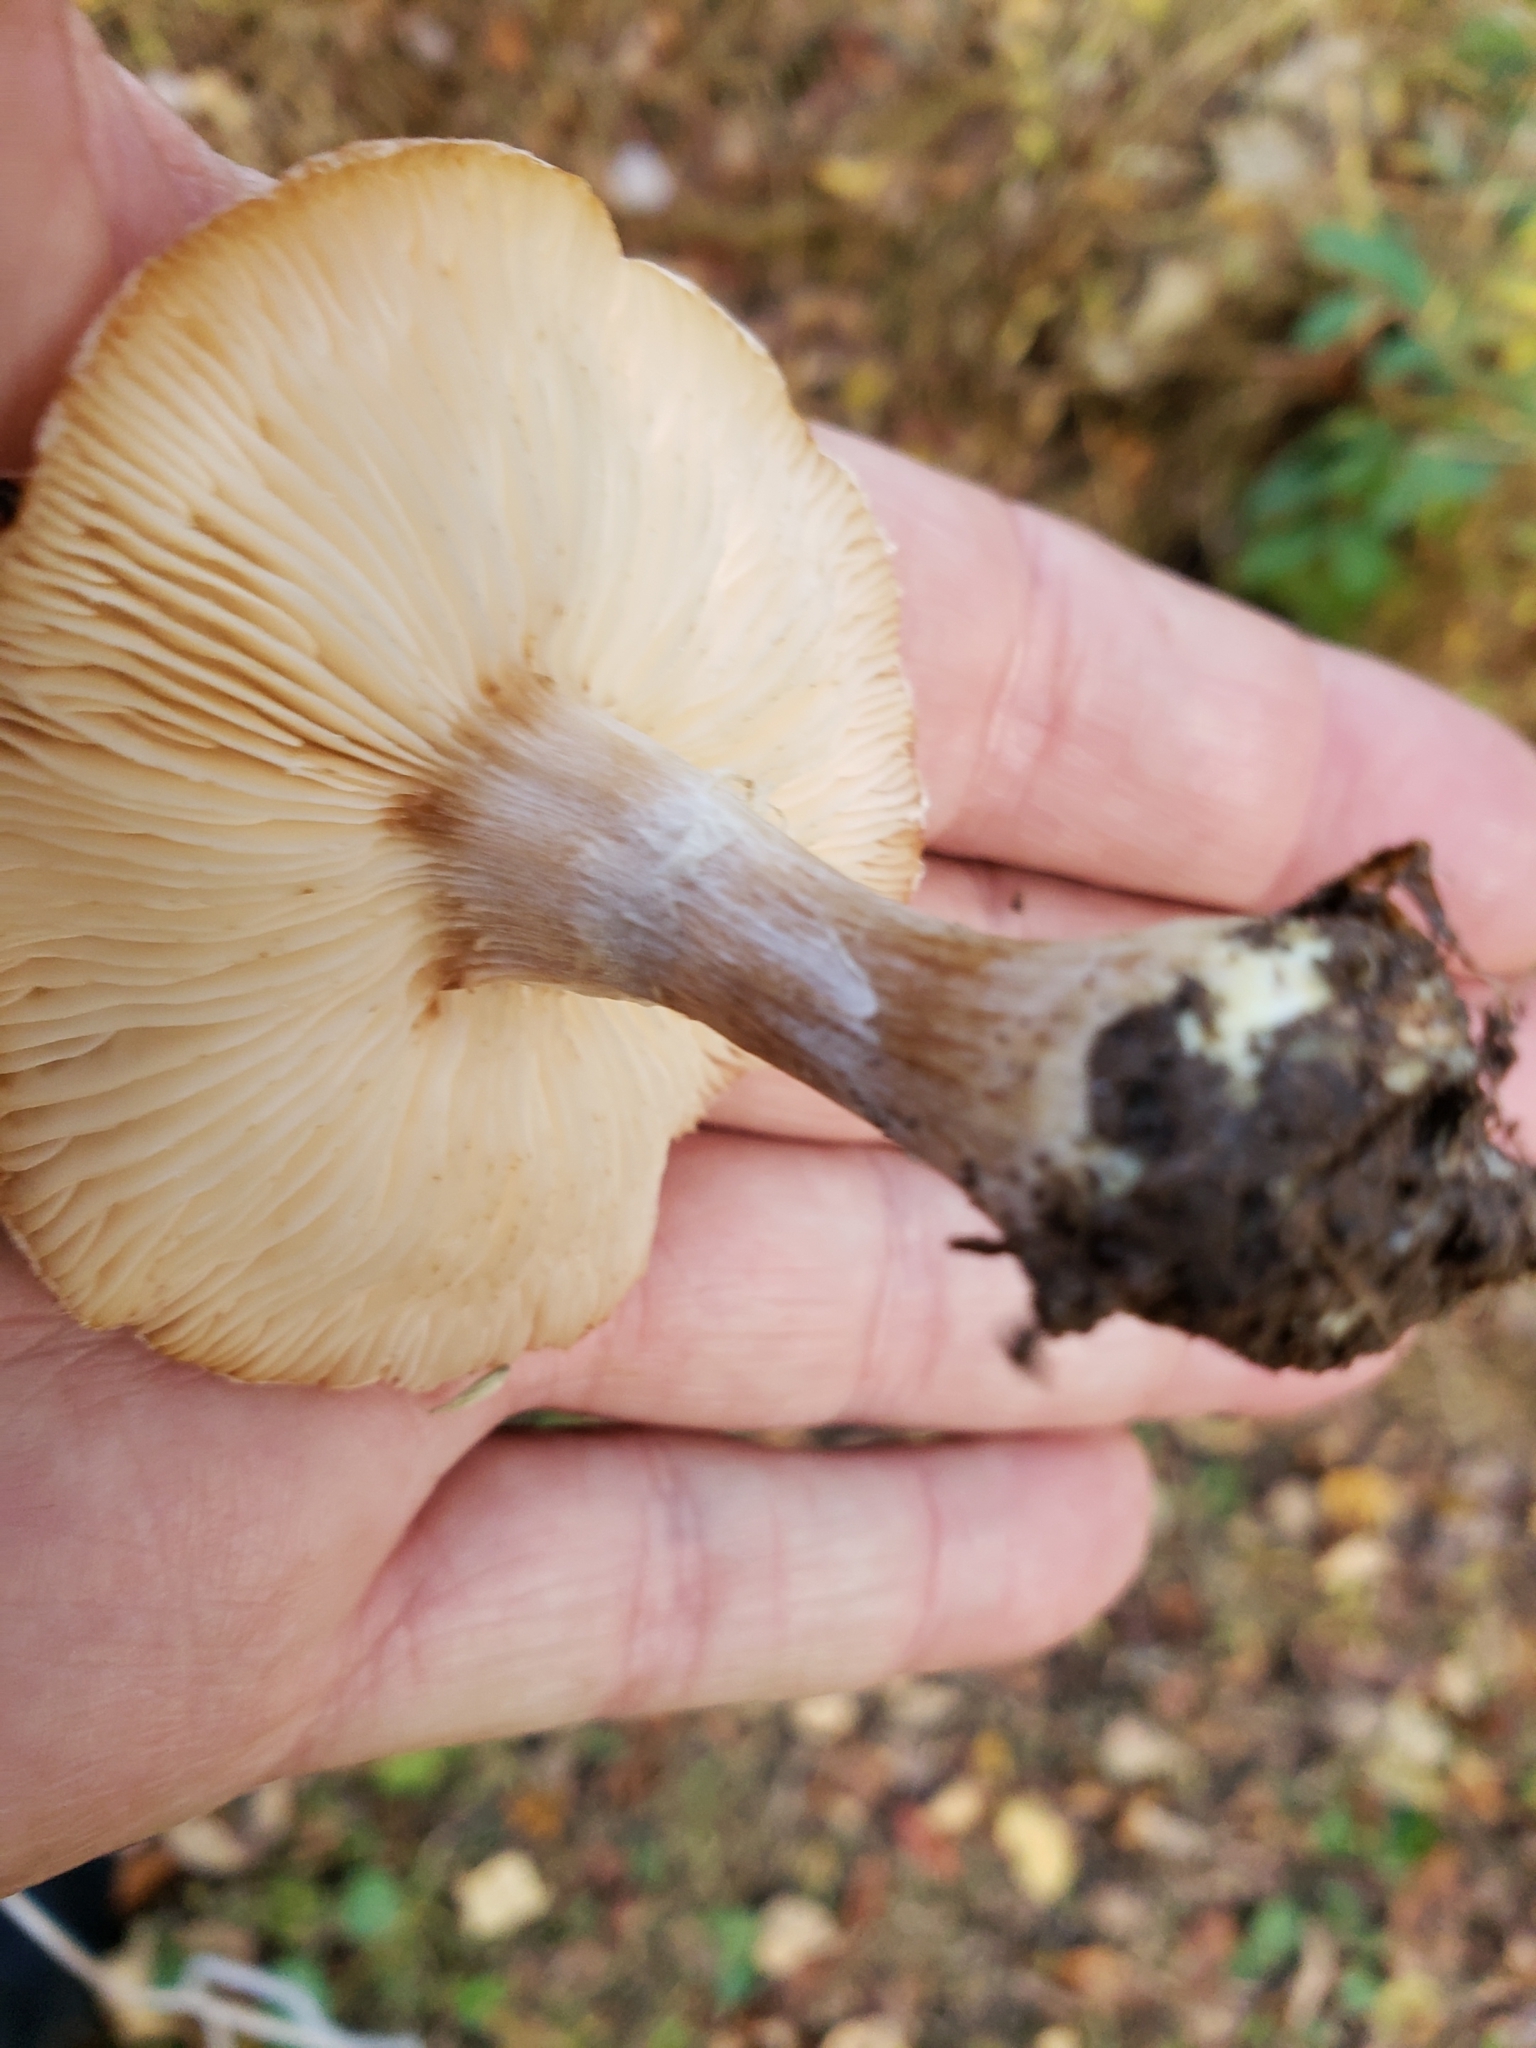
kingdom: Fungi
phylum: Basidiomycota
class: Agaricomycetes
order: Agaricales
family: Physalacriaceae
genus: Armillaria
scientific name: Armillaria gallica
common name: Bulbous honey fungus
